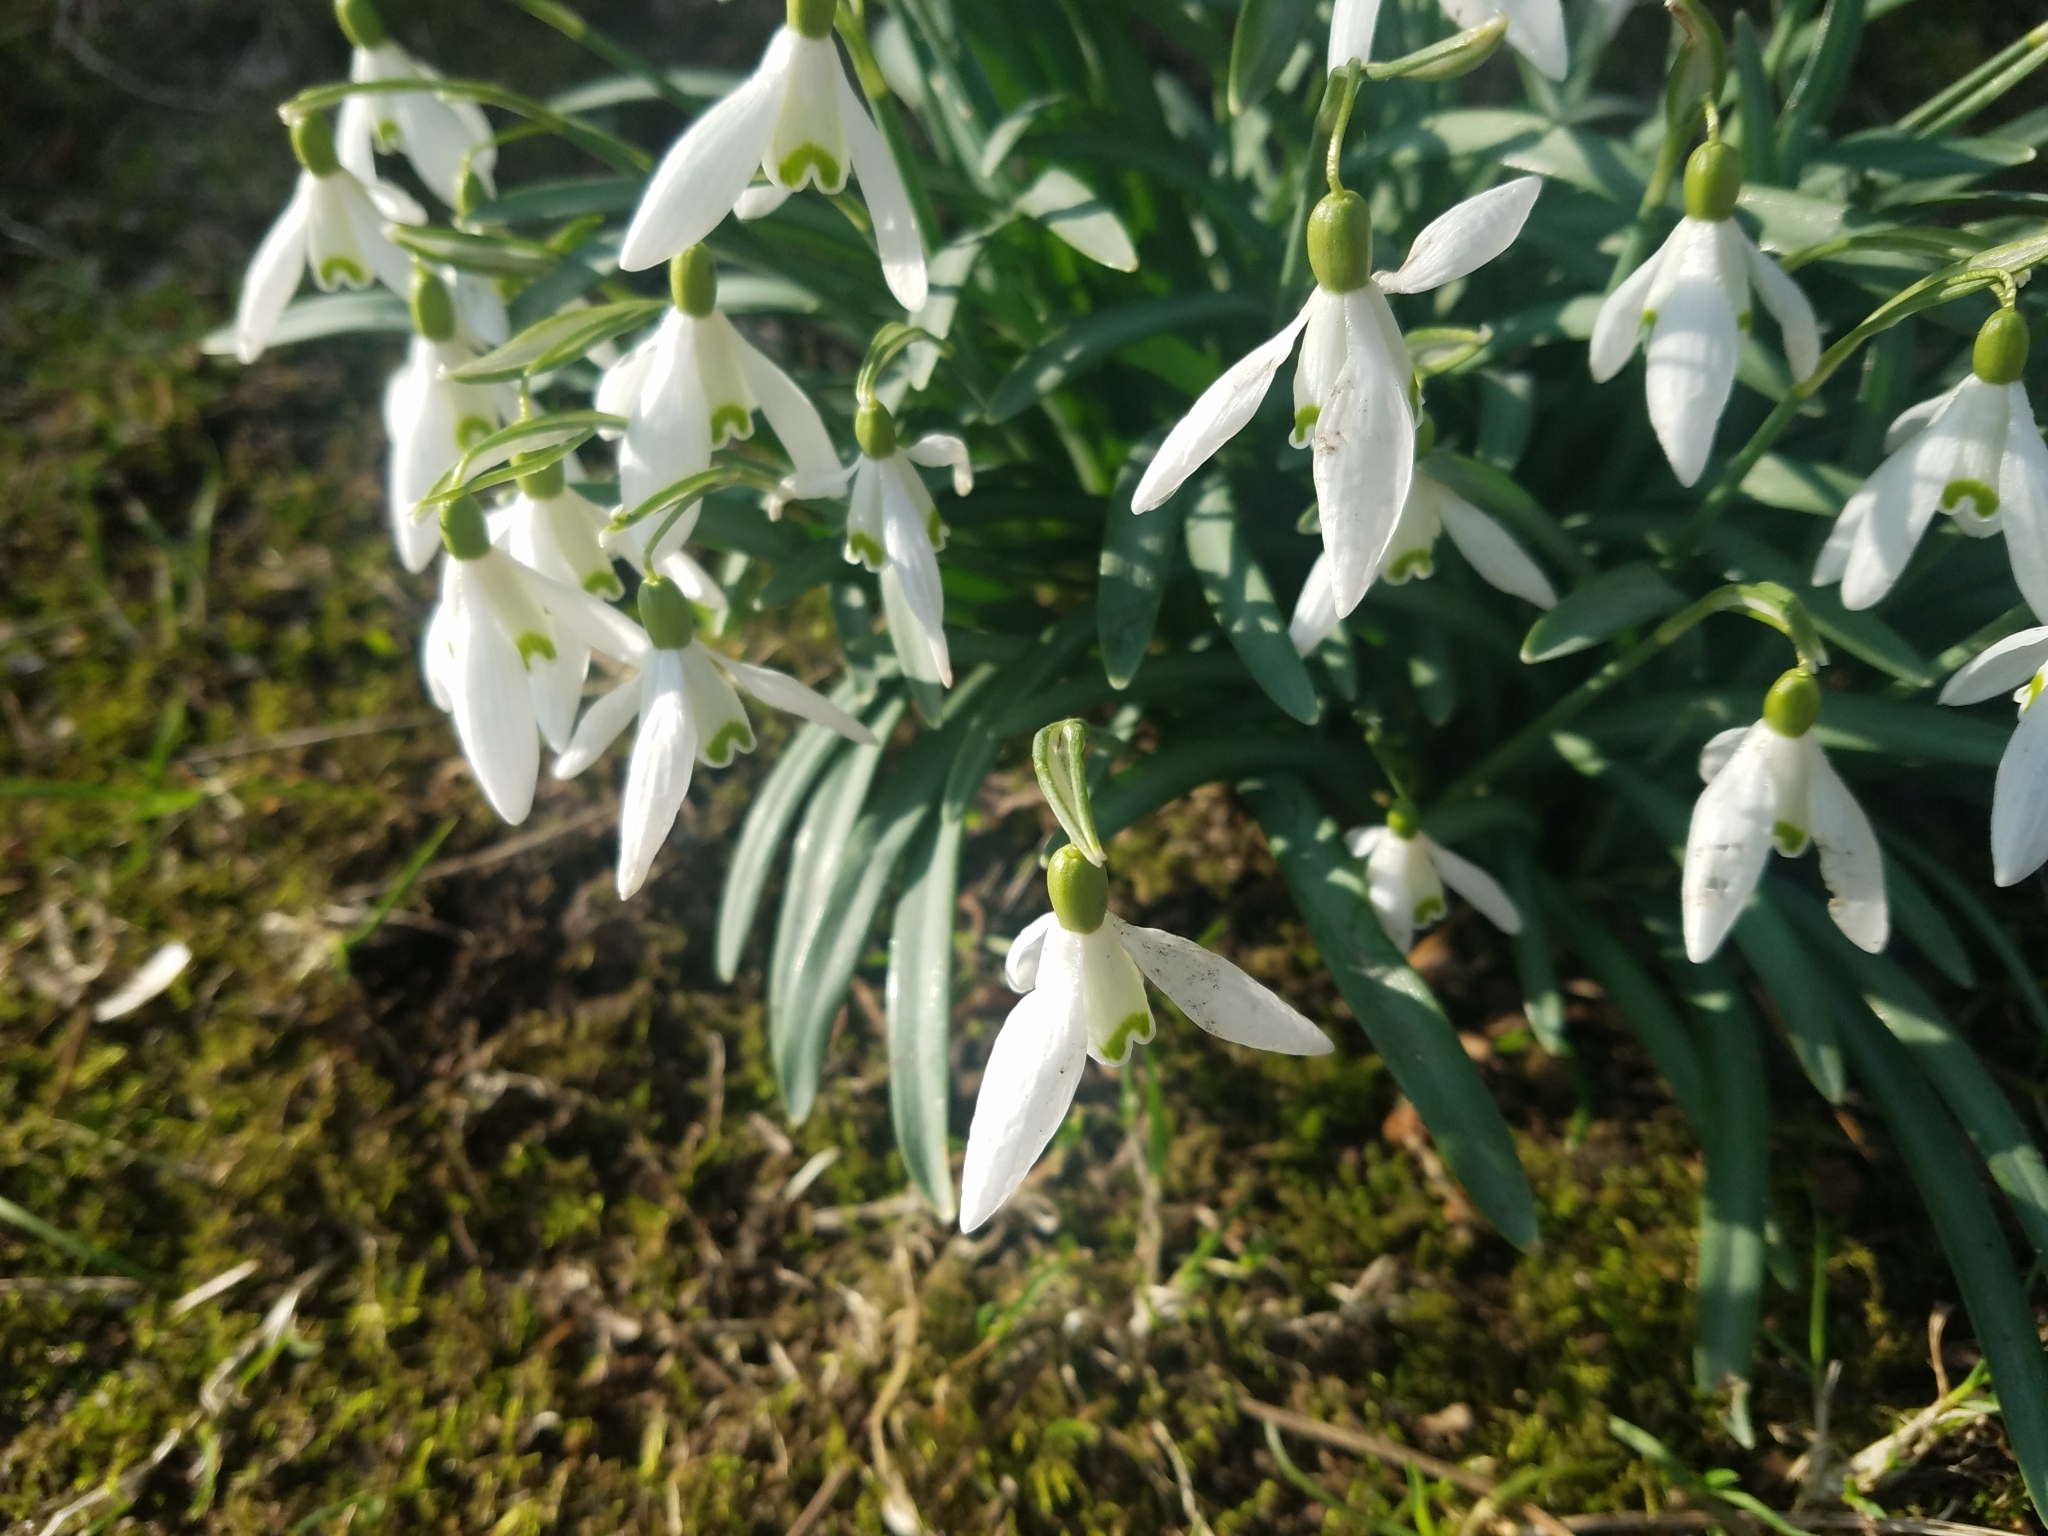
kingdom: Plantae
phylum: Tracheophyta
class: Liliopsida
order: Asparagales
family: Amaryllidaceae
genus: Galanthus
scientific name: Galanthus nivalis
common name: Snowdrop
